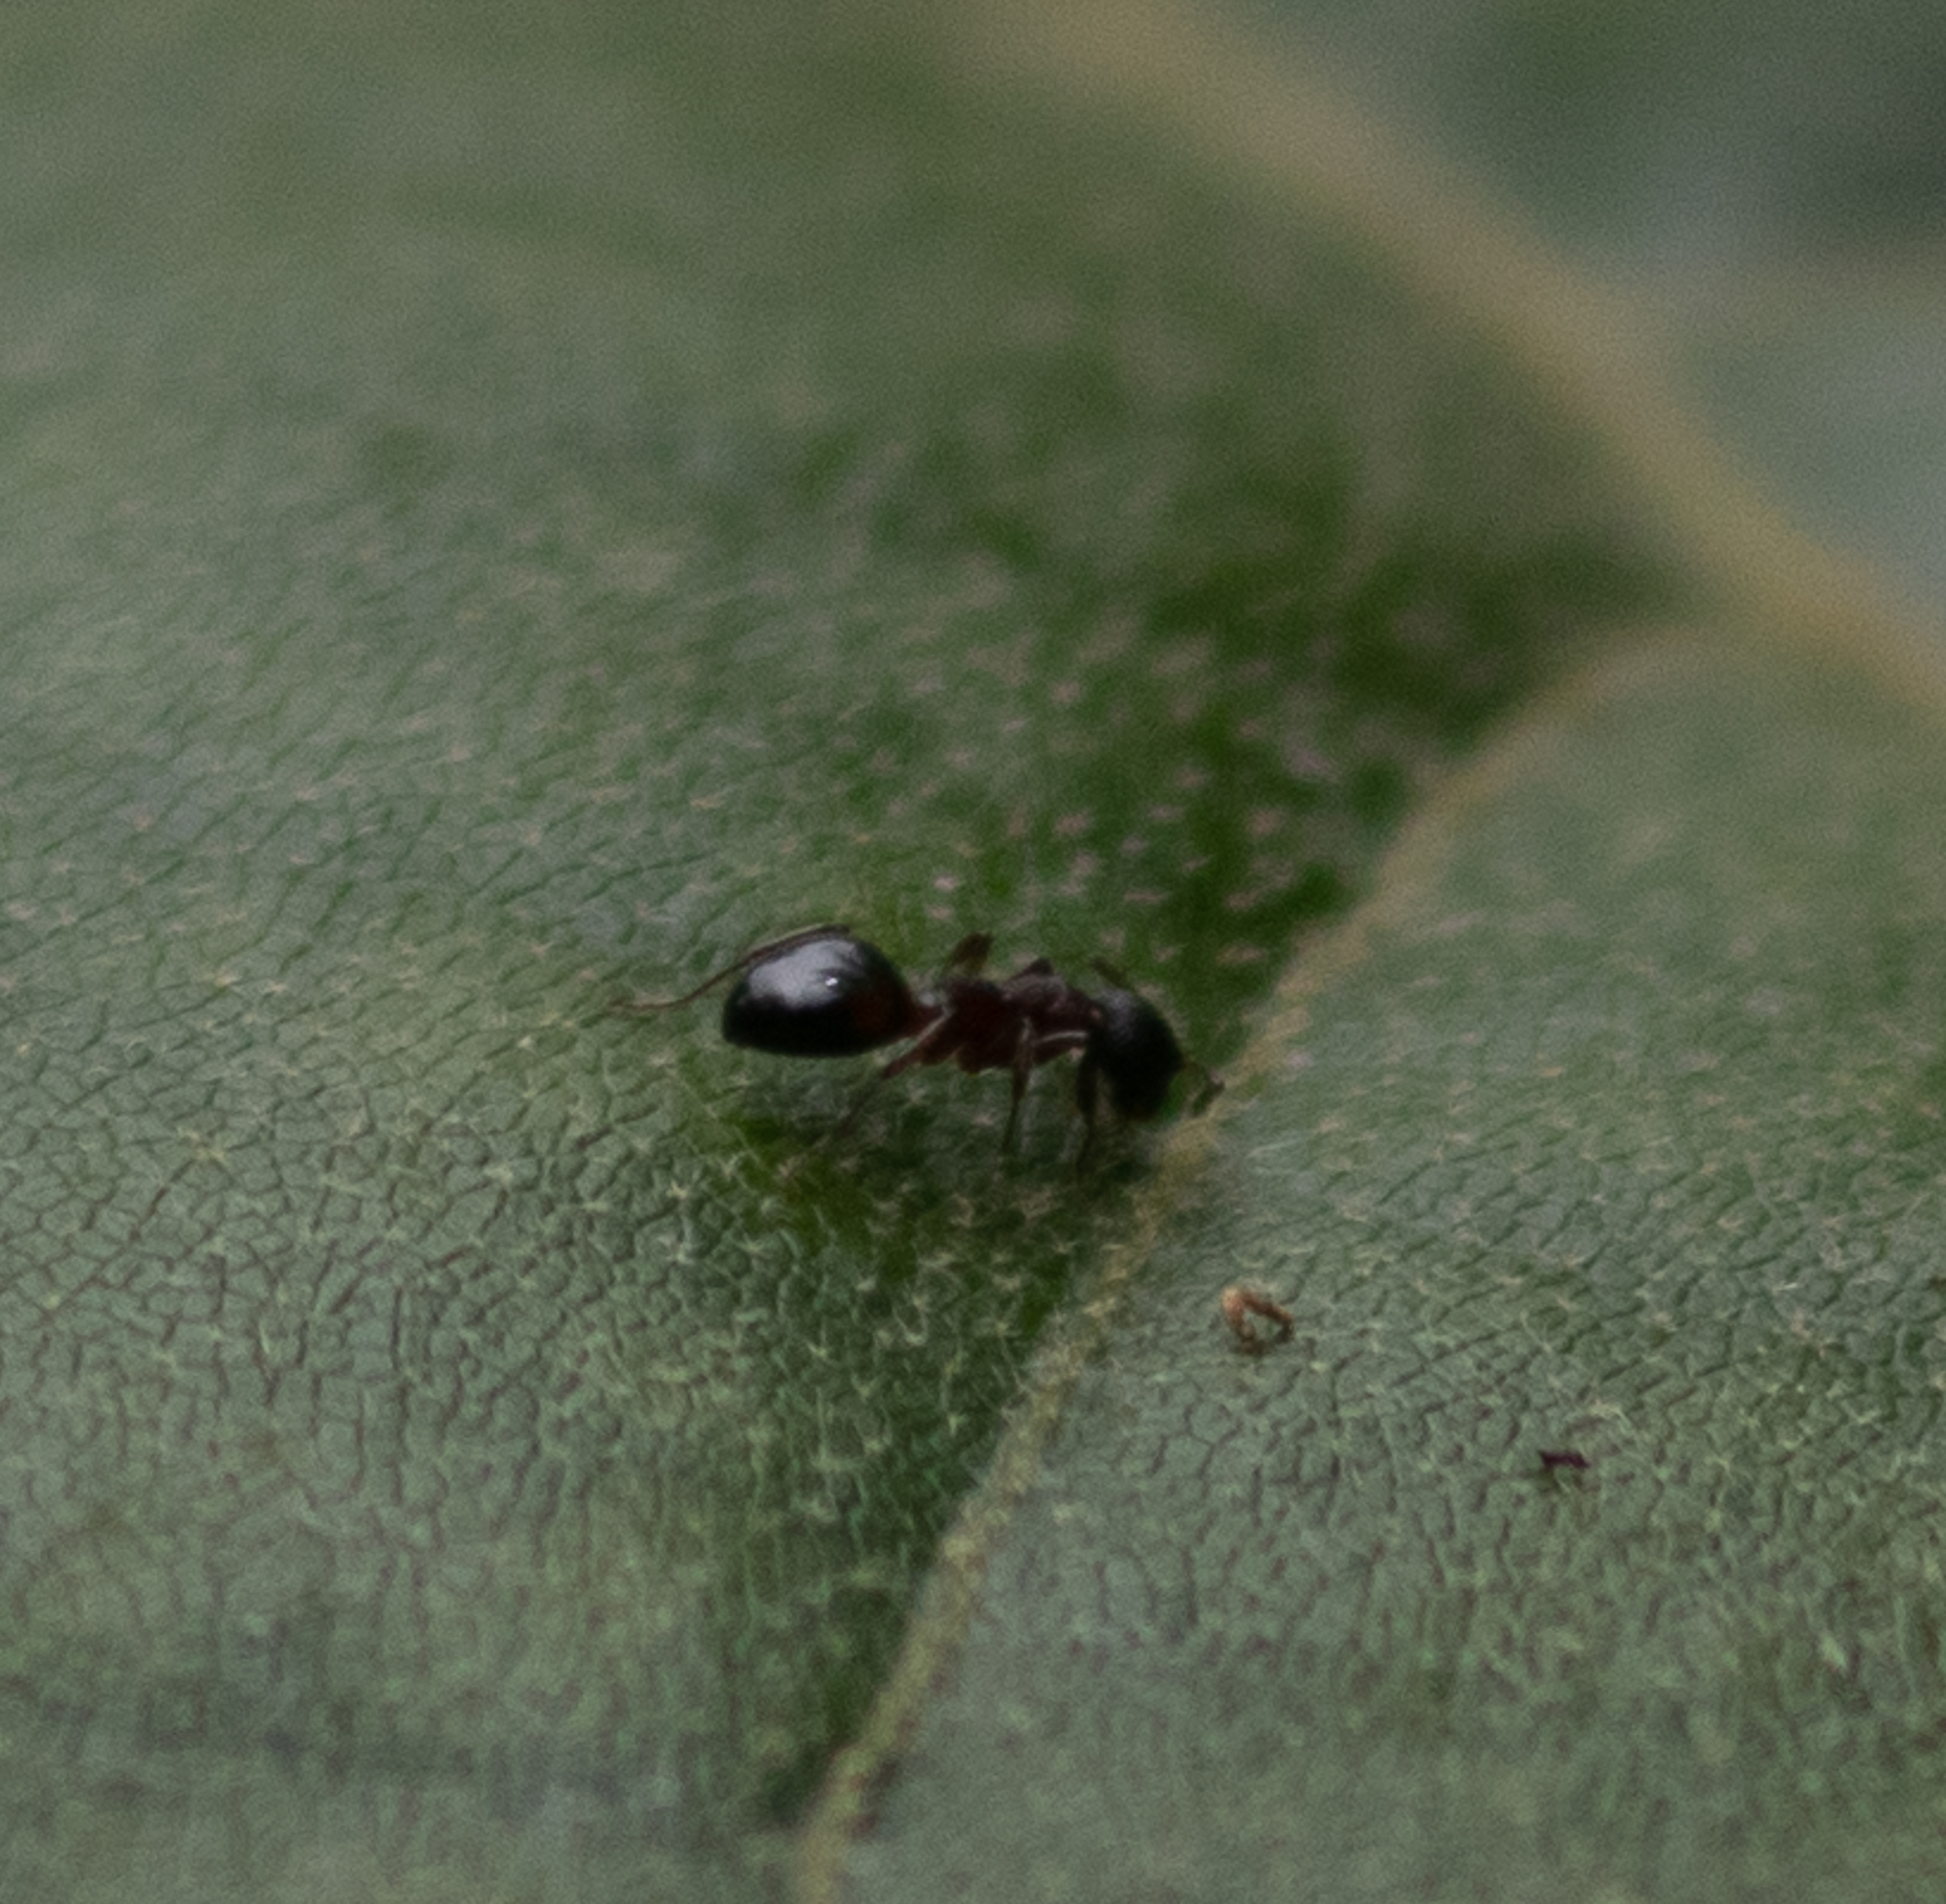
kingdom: Animalia
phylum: Arthropoda
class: Insecta
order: Hymenoptera
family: Formicidae
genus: Dolichoderus
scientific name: Dolichoderus plagiatus
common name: Mottled dolichoderus
